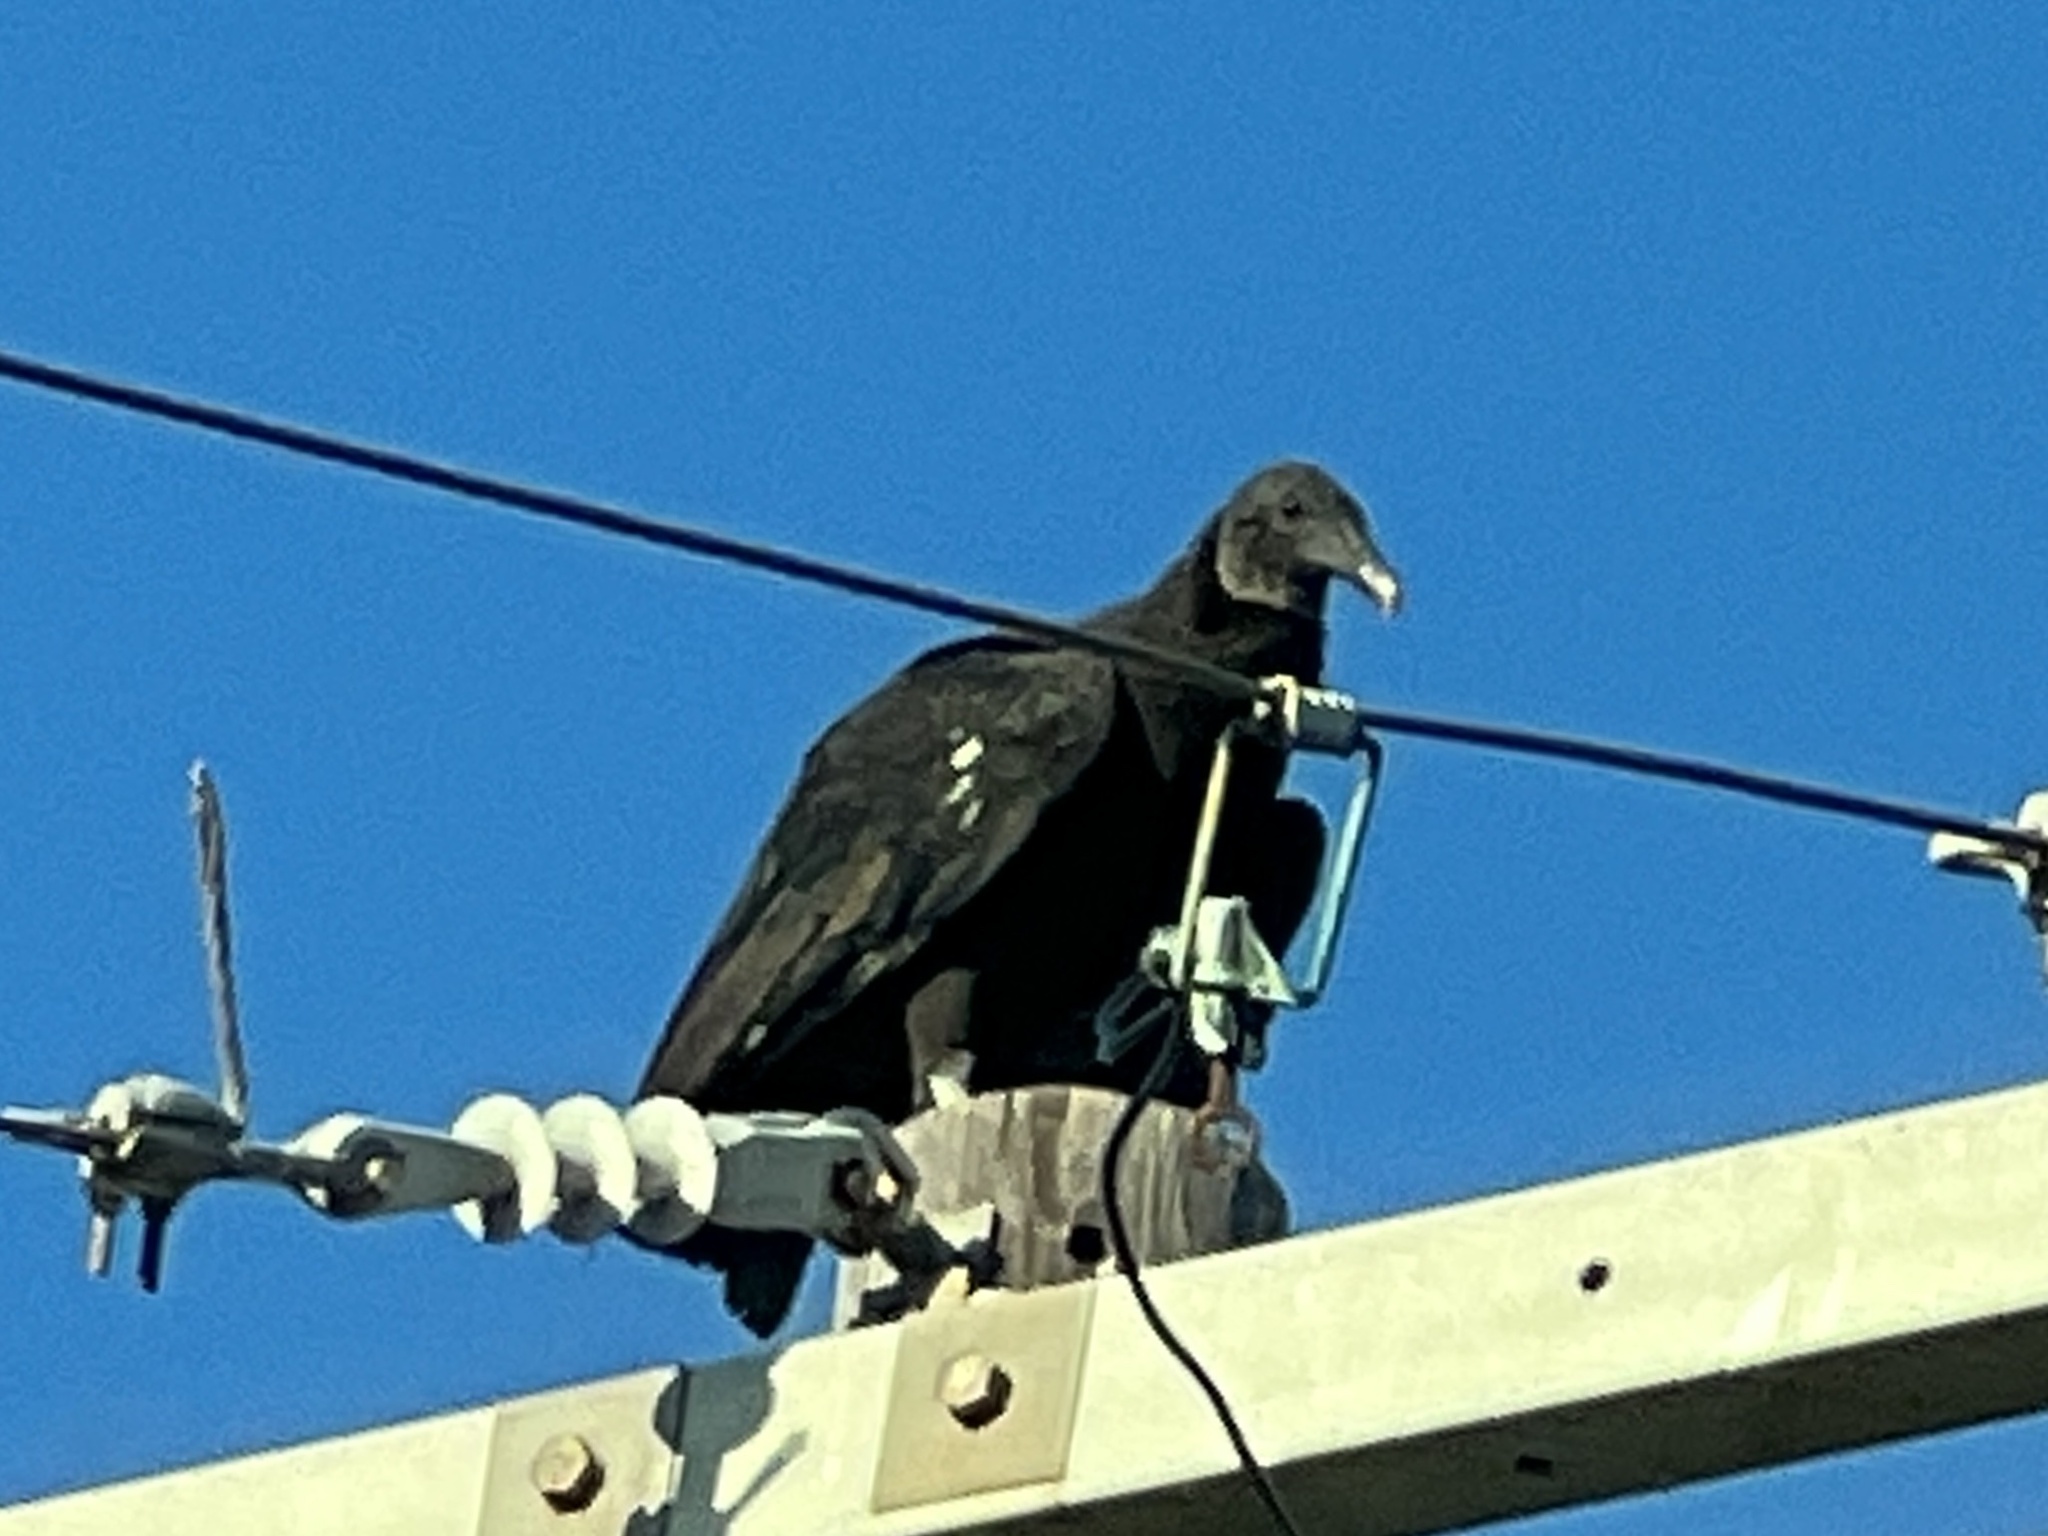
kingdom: Animalia
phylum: Chordata
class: Aves
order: Accipitriformes
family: Cathartidae
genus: Coragyps
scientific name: Coragyps atratus
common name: Black vulture
